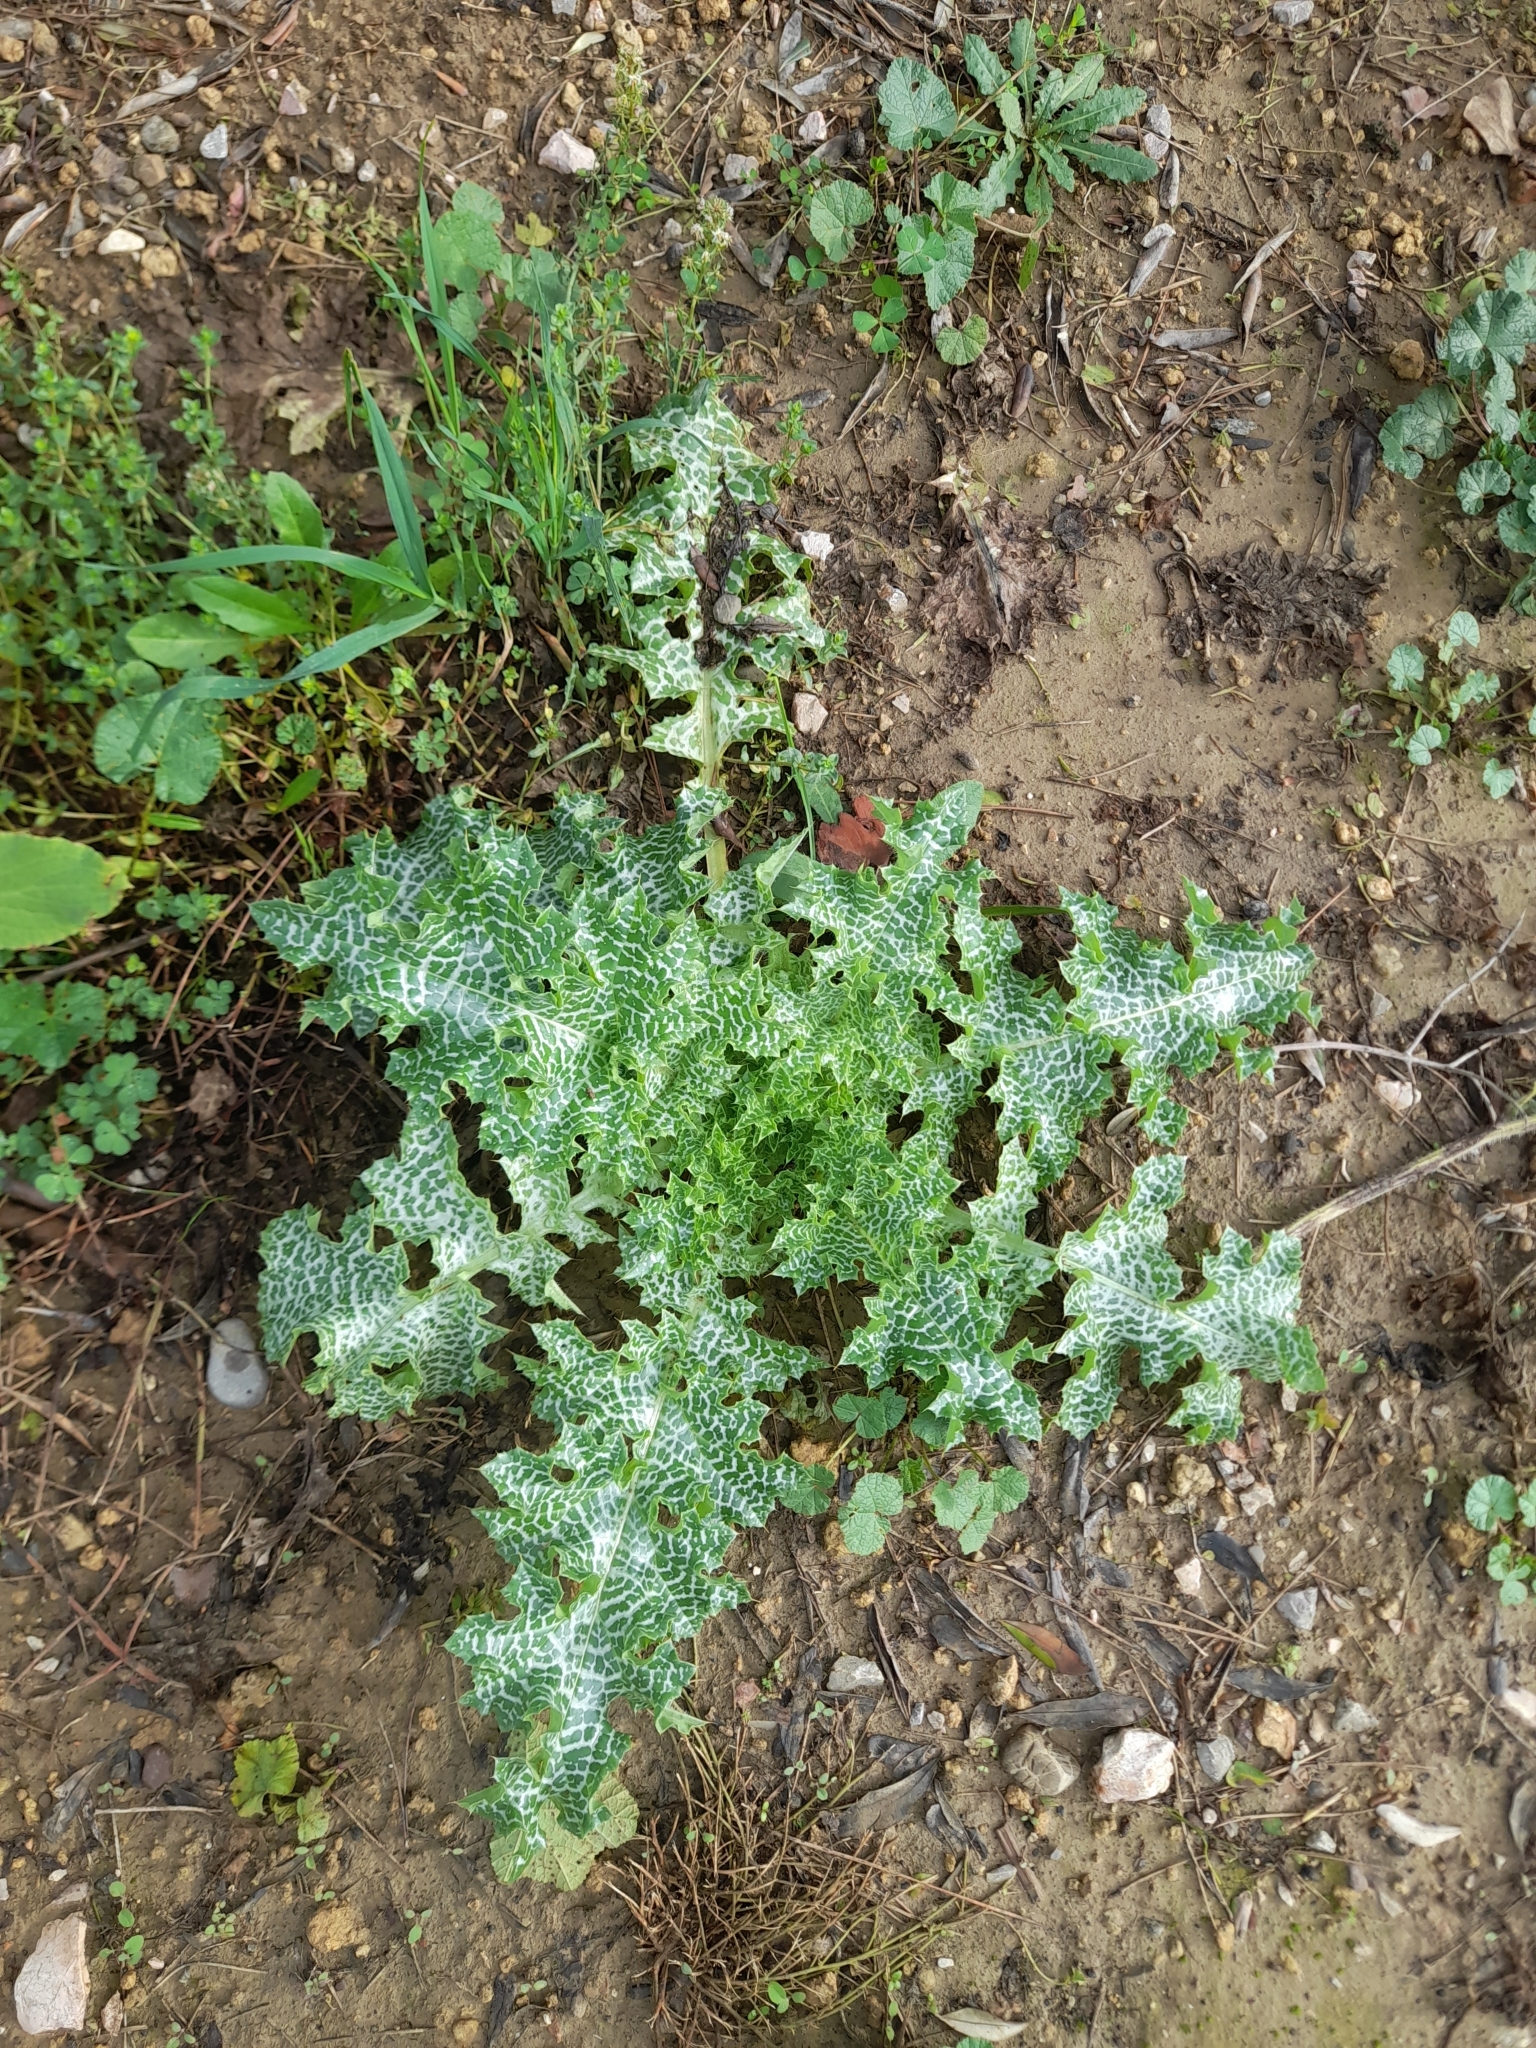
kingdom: Plantae
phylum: Tracheophyta
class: Magnoliopsida
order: Asterales
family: Asteraceae
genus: Silybum
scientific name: Silybum marianum
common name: Milk thistle
